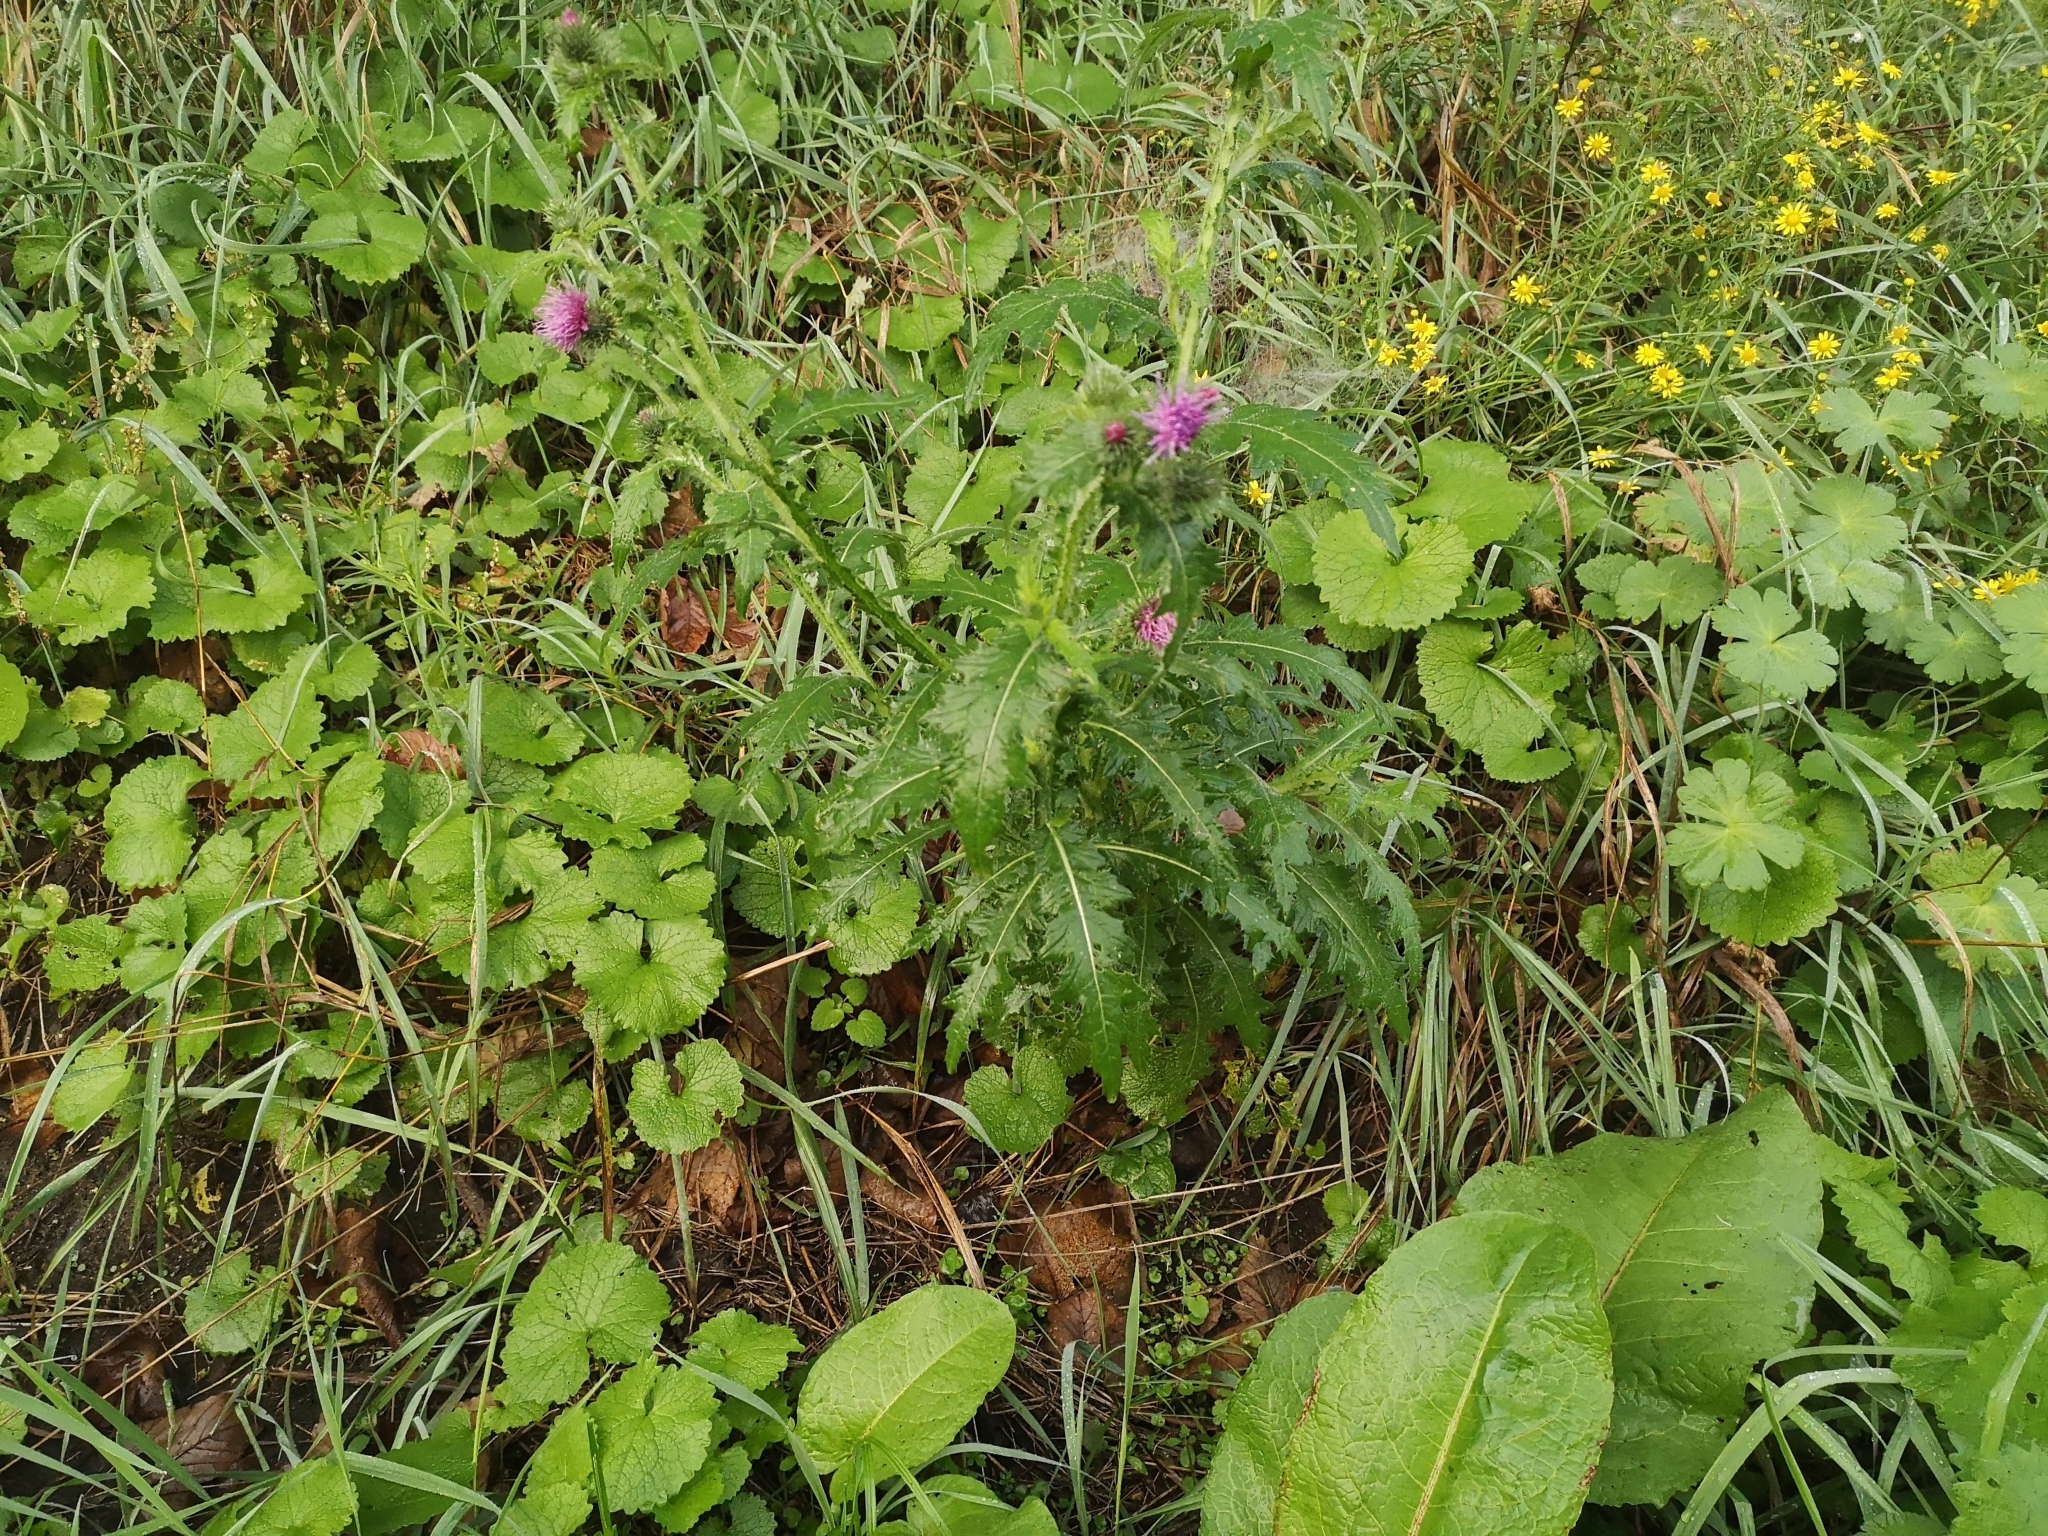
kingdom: Plantae
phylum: Tracheophyta
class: Magnoliopsida
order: Asterales
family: Asteraceae
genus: Carduus
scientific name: Carduus crispus
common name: Welted thistle
